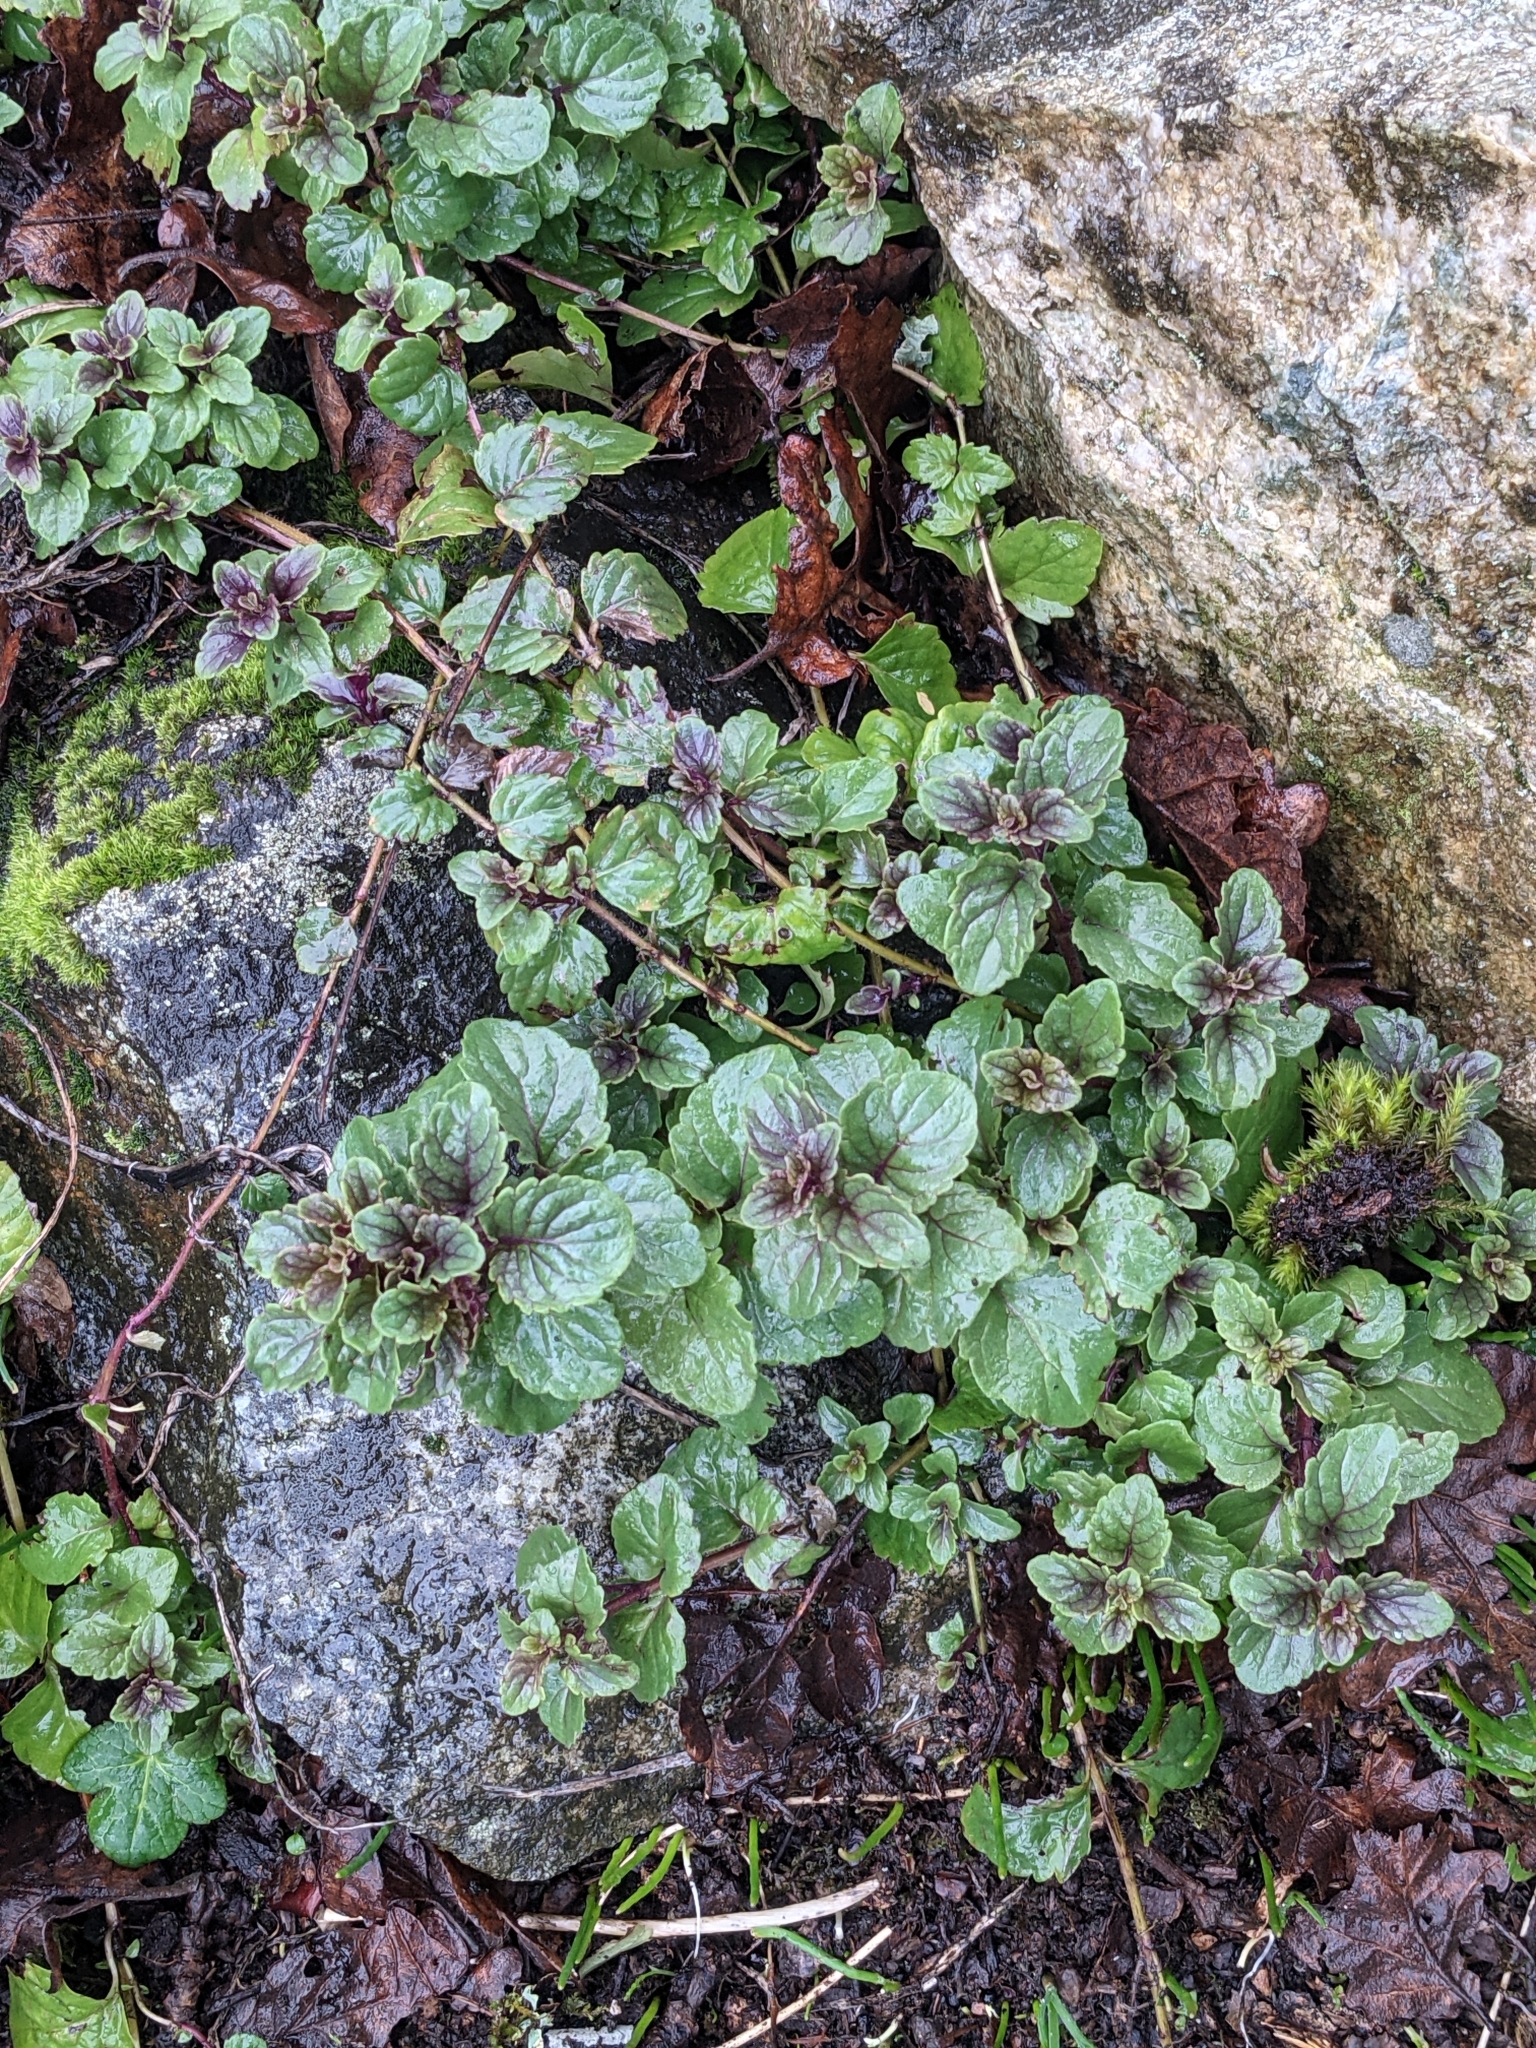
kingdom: Plantae
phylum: Tracheophyta
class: Magnoliopsida
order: Lamiales
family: Lamiaceae
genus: Micromeria
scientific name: Micromeria douglasii
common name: Yerba buena
